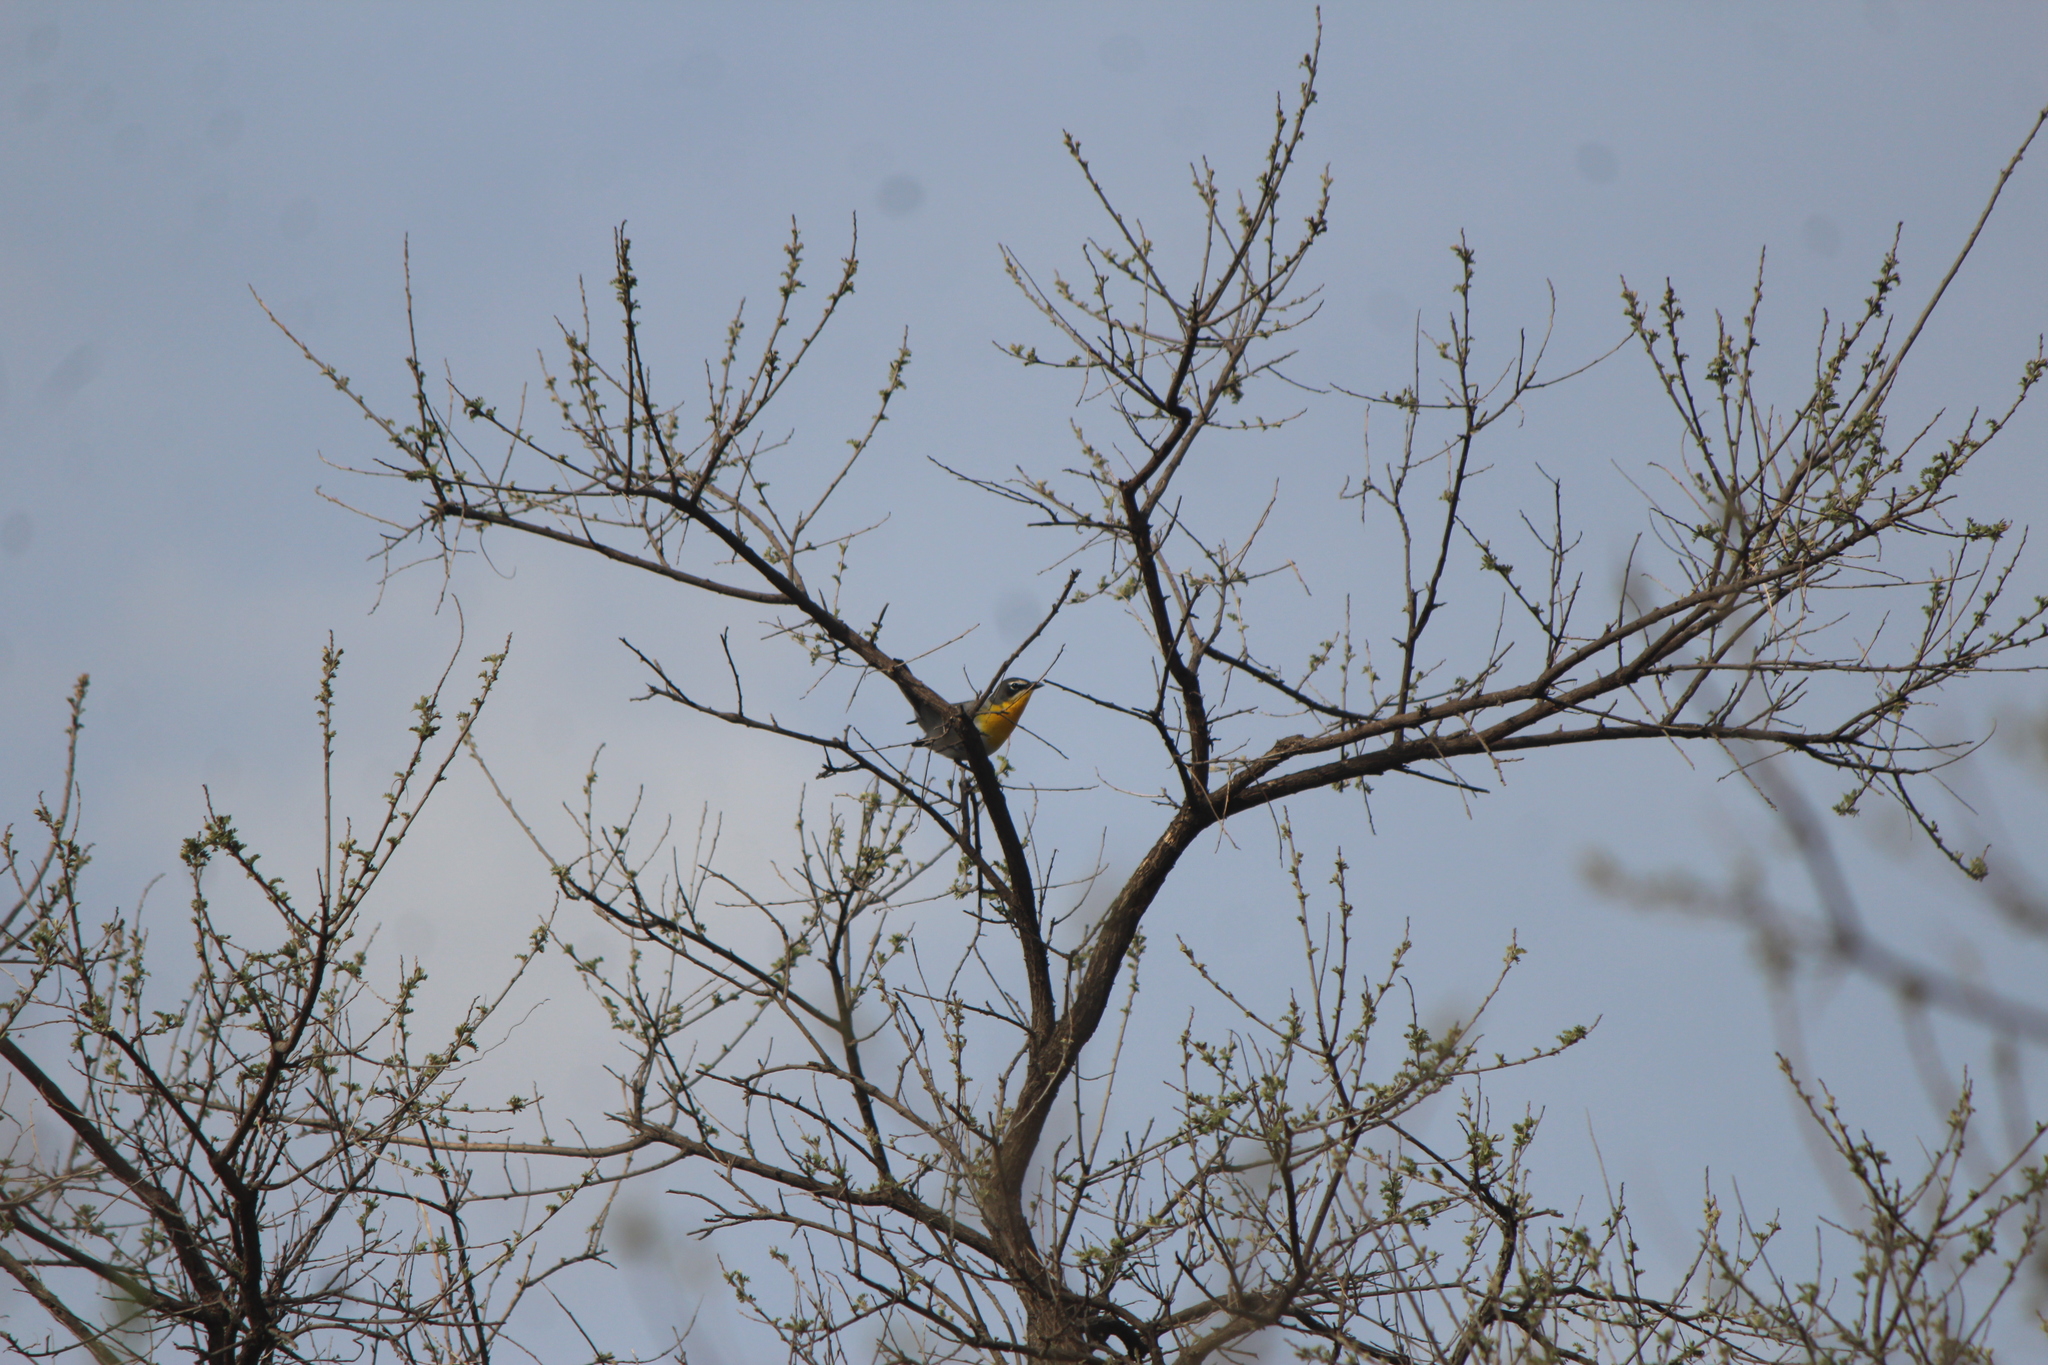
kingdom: Animalia
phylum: Chordata
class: Aves
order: Passeriformes
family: Parulidae
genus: Icteria
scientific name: Icteria virens
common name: Yellow-breasted chat
